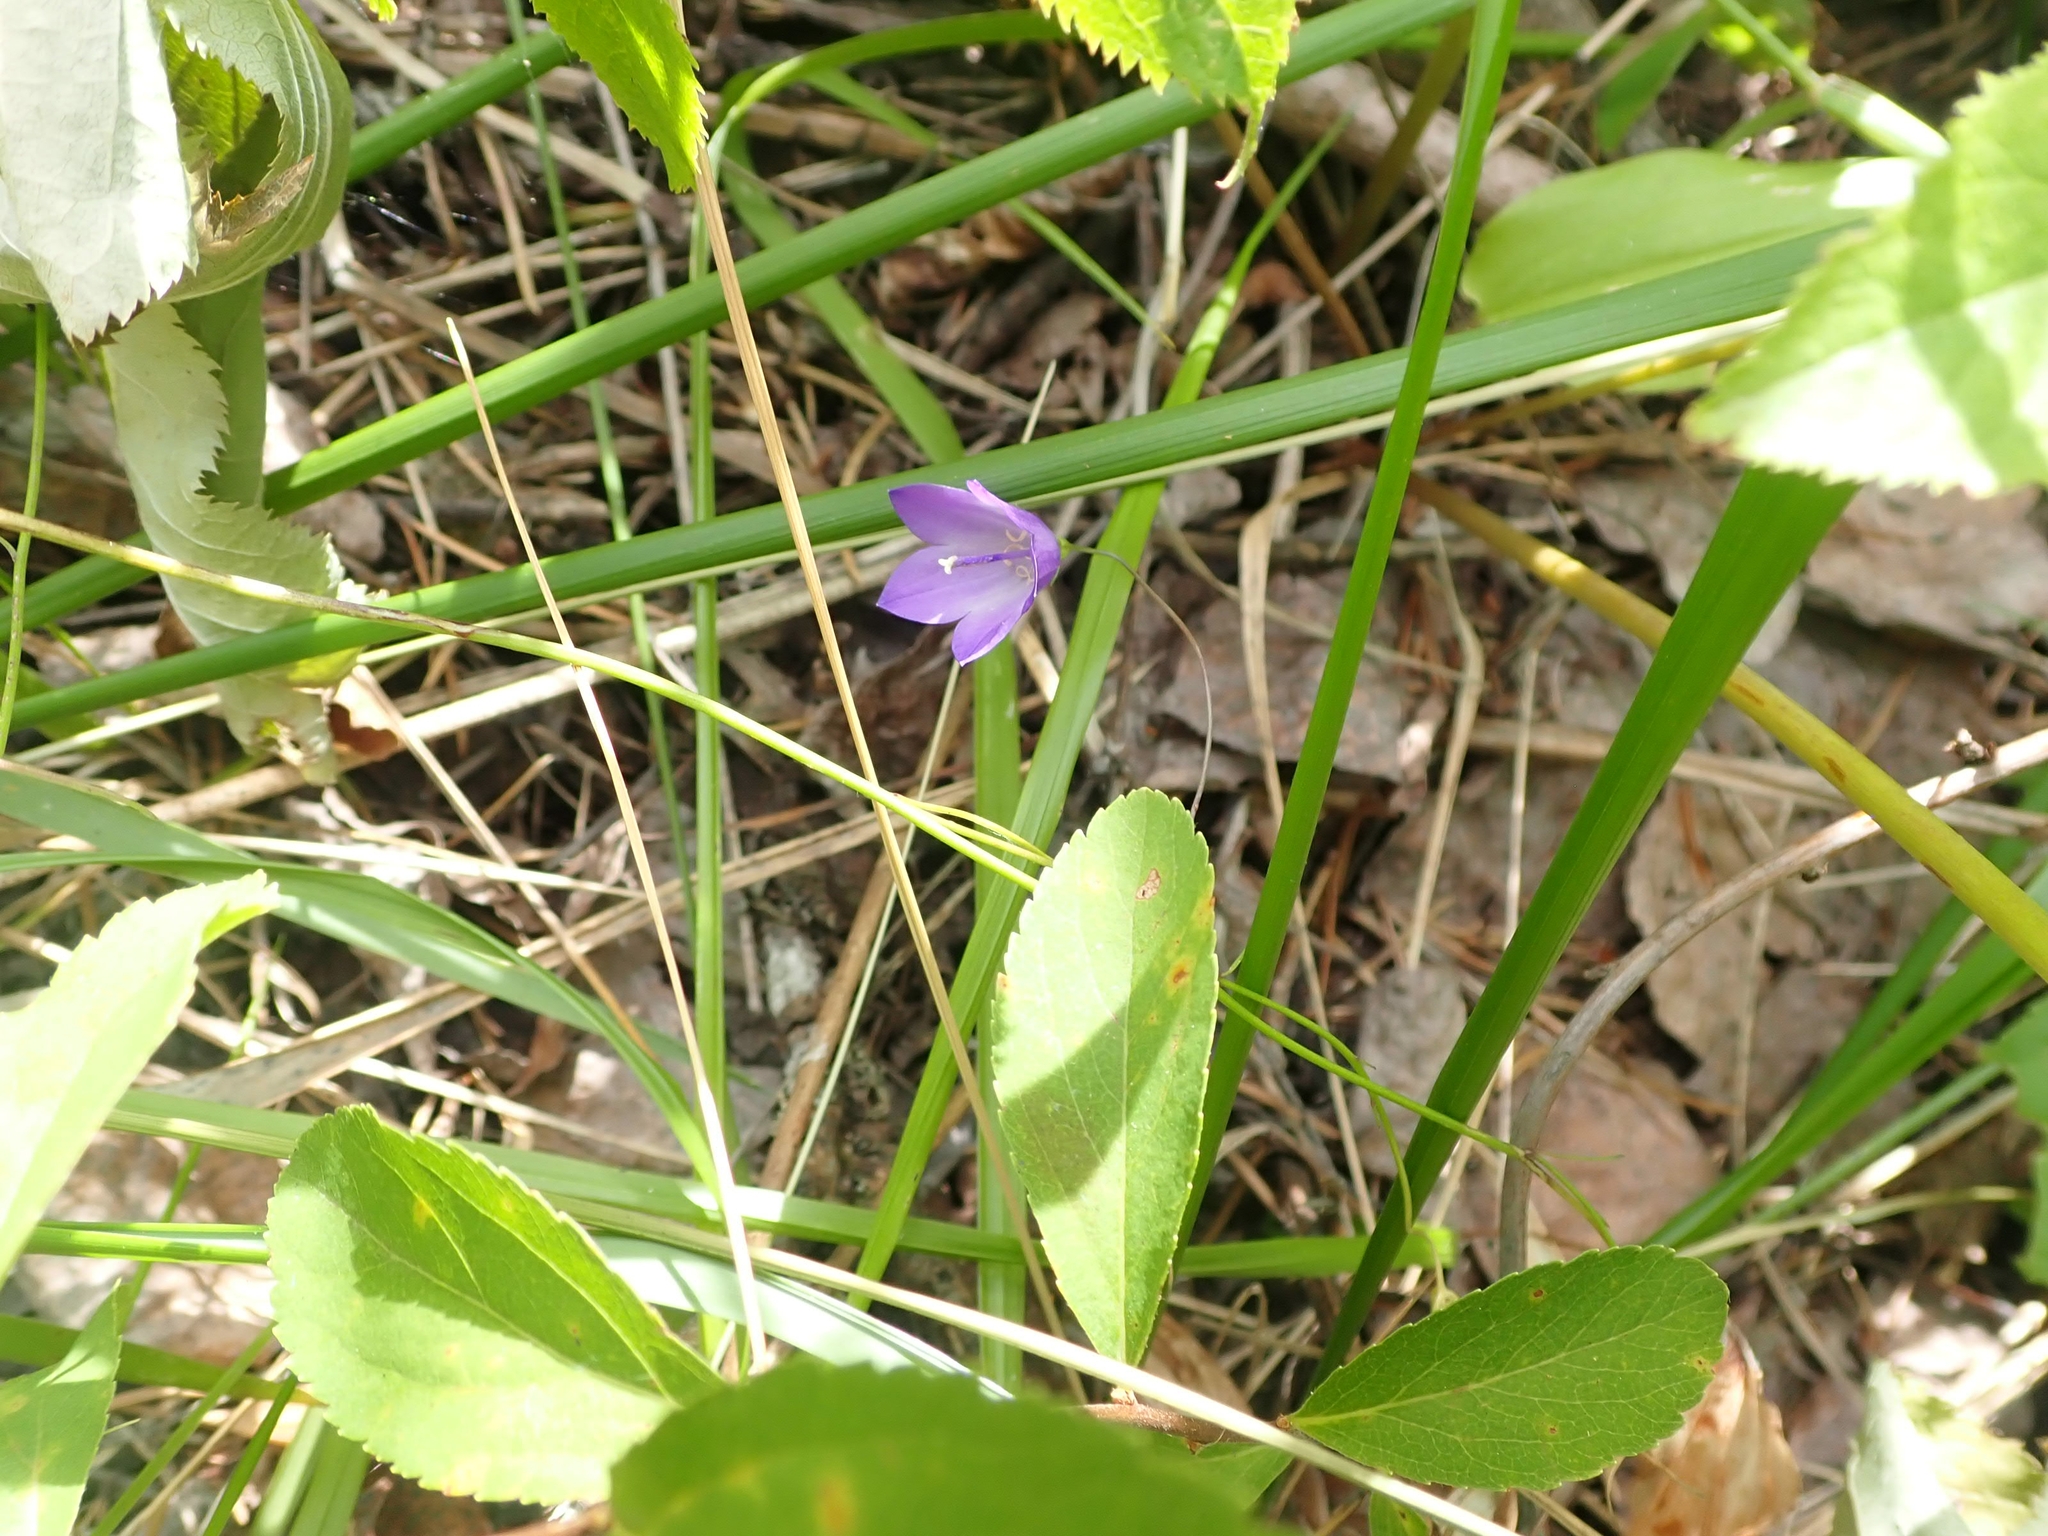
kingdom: Plantae
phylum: Tracheophyta
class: Magnoliopsida
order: Asterales
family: Campanulaceae
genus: Campanula
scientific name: Campanula petiolata
